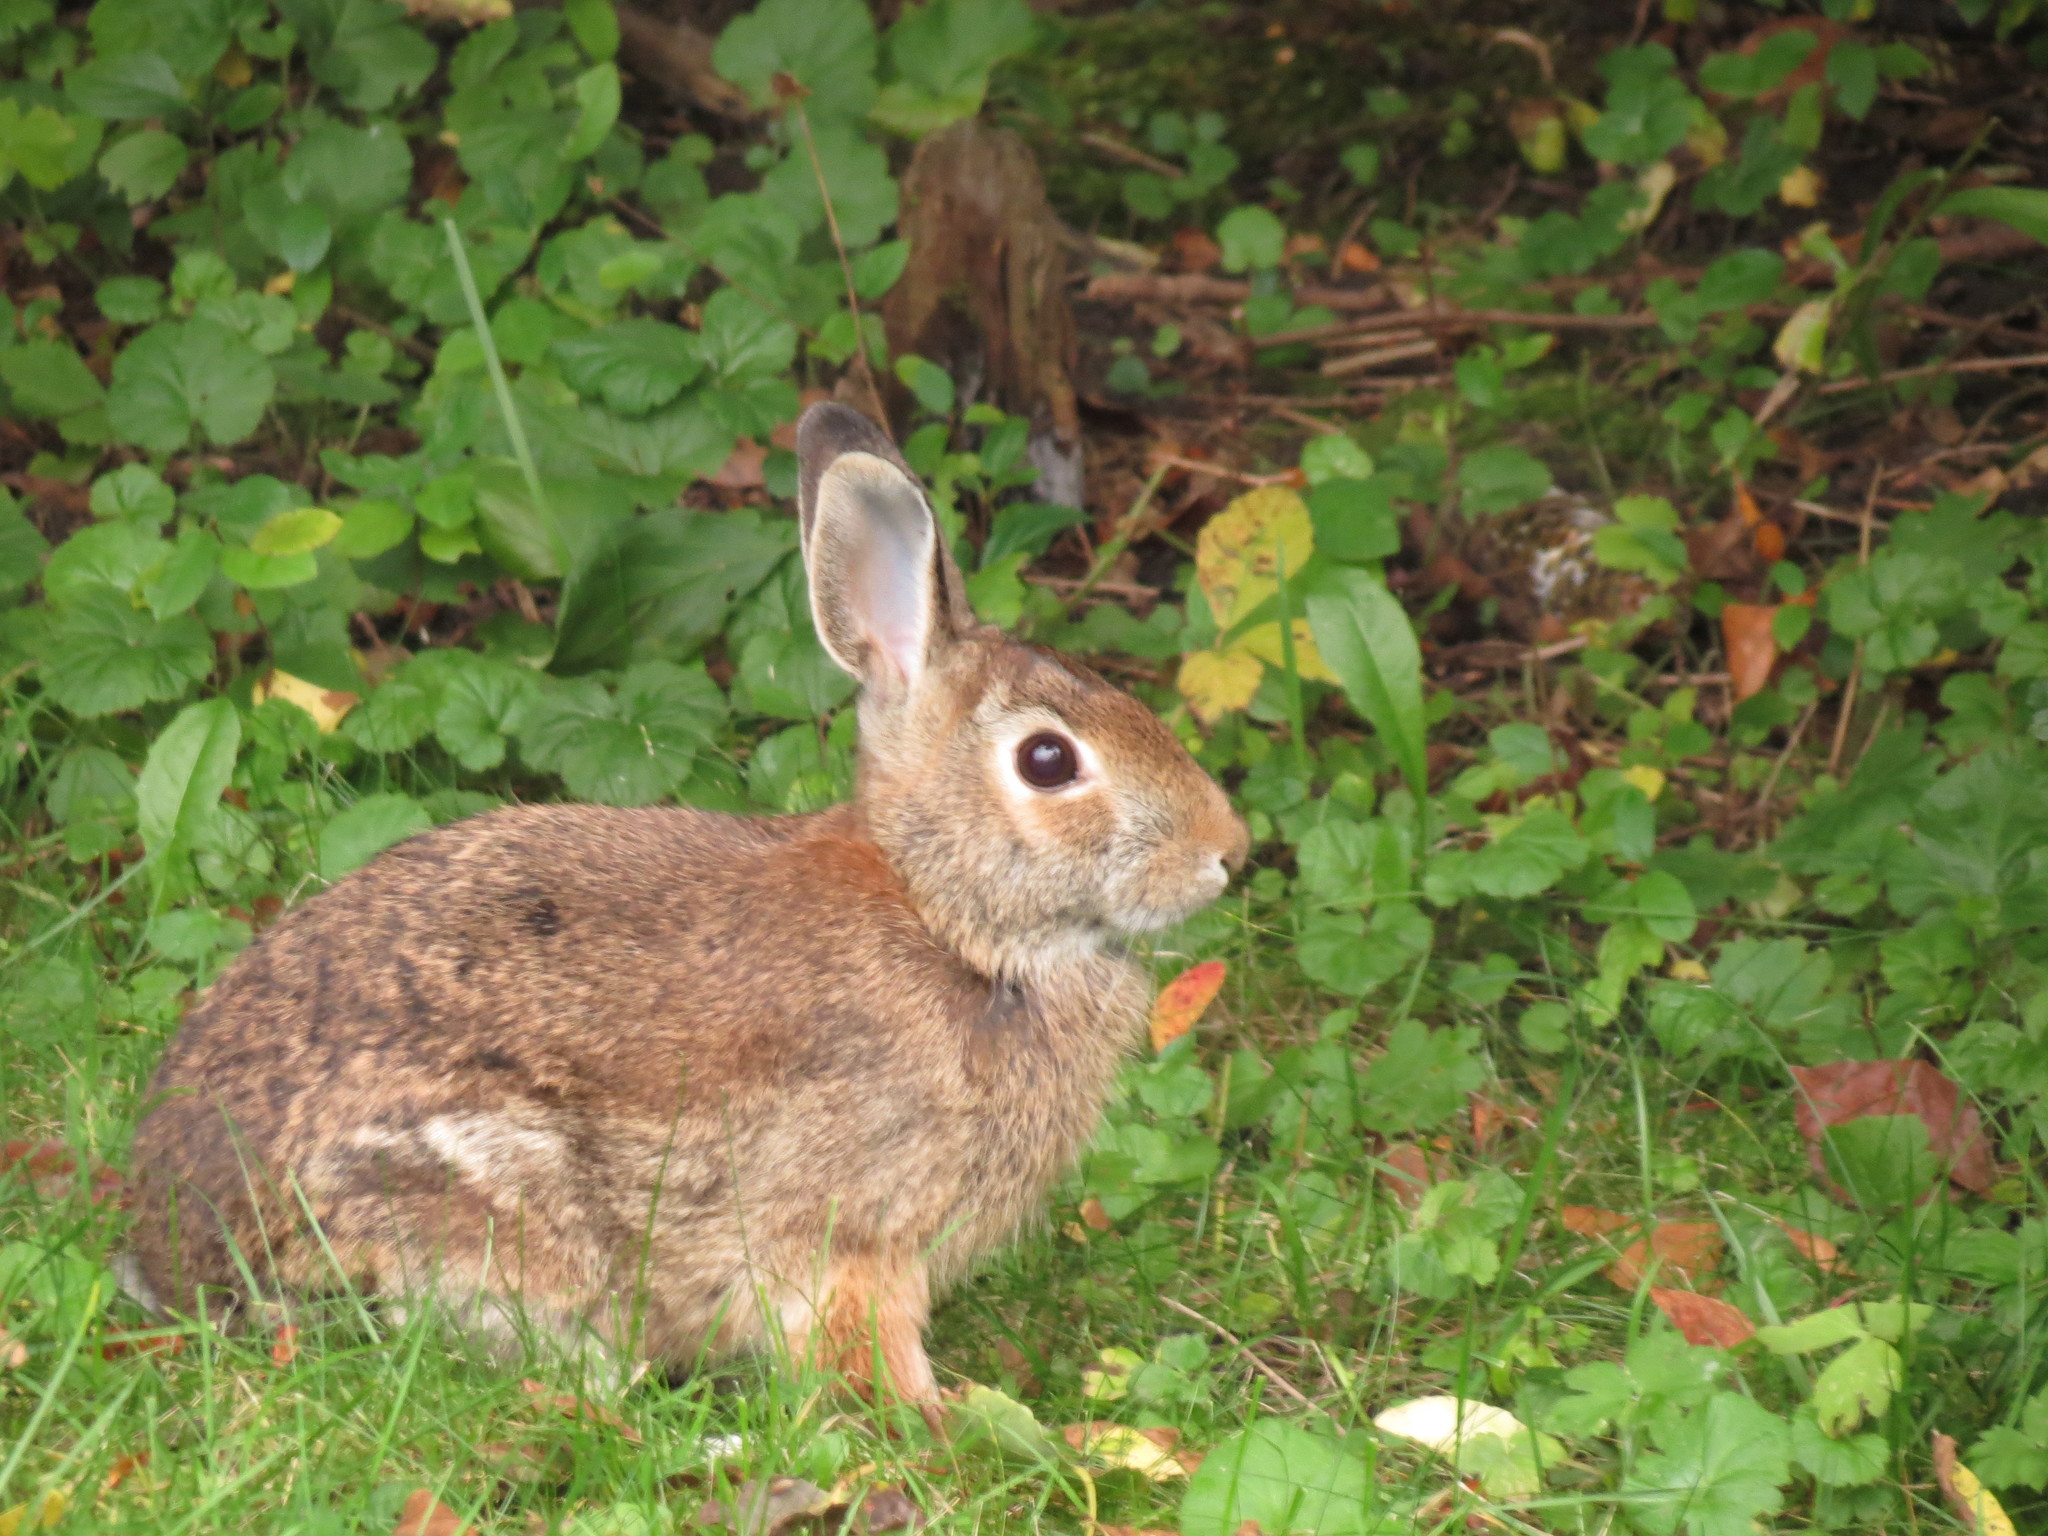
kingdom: Animalia
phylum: Chordata
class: Mammalia
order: Lagomorpha
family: Leporidae
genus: Sylvilagus
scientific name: Sylvilagus floridanus
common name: Eastern cottontail
